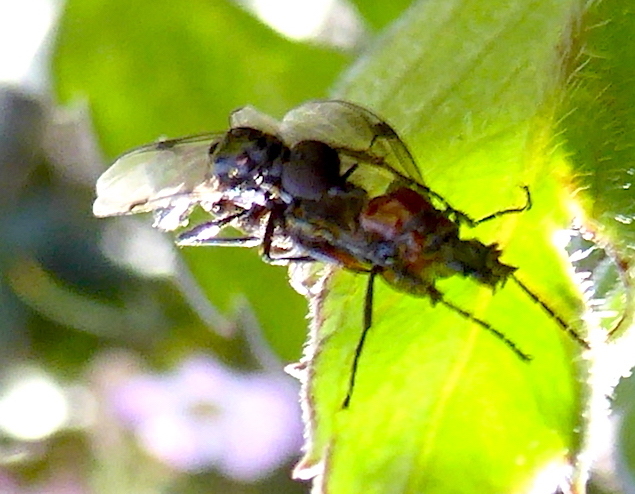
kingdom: Animalia
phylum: Arthropoda
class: Insecta
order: Diptera
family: Bibionidae
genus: Dilophus
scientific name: Dilophus strigilatus
